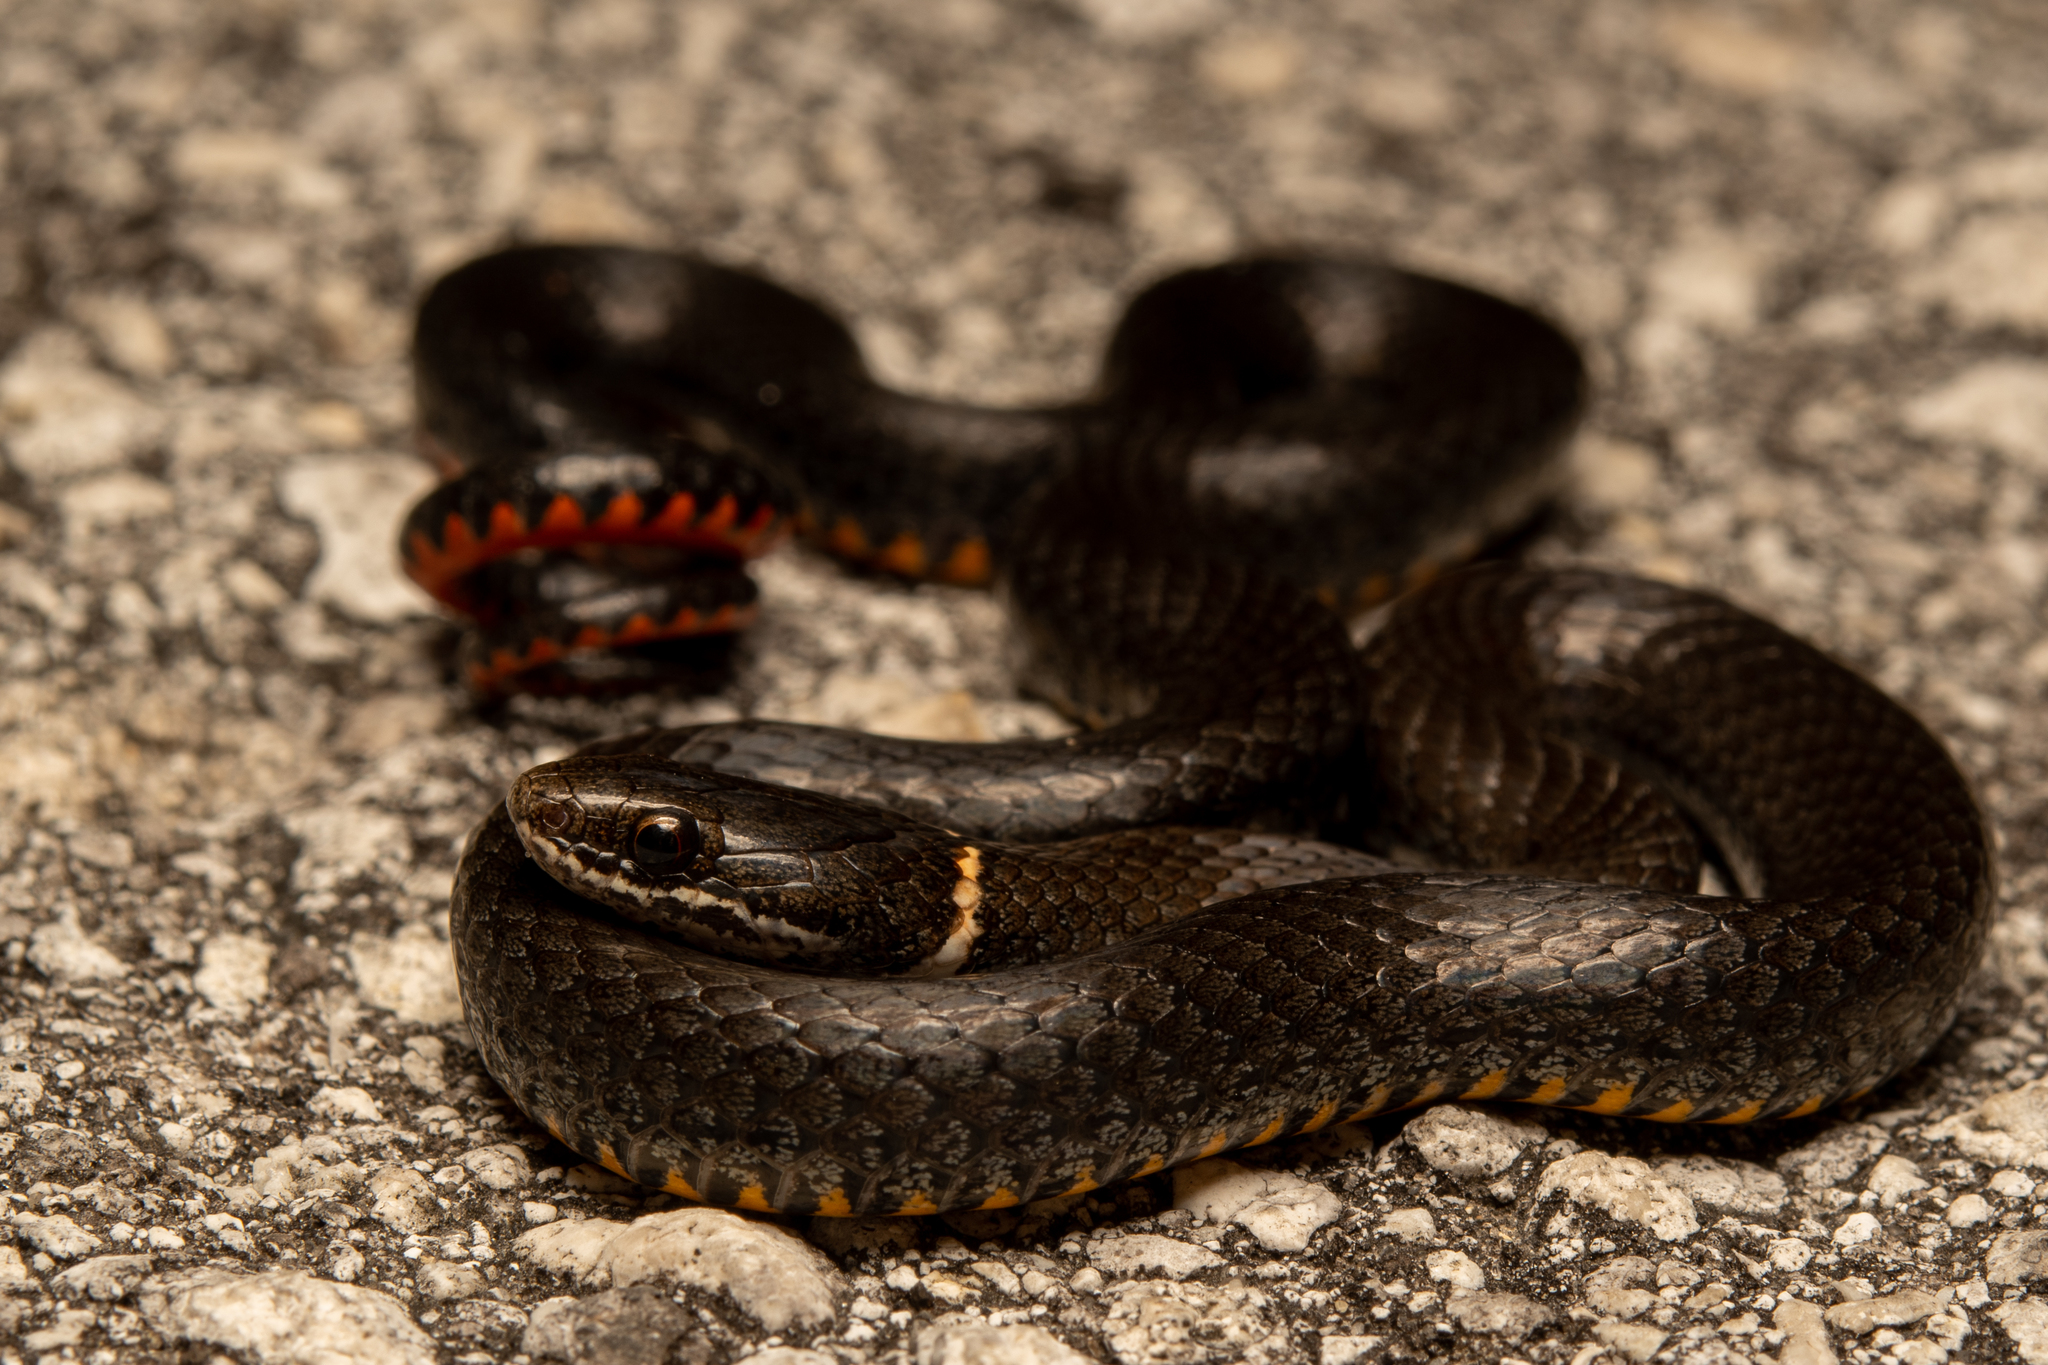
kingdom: Animalia
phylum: Chordata
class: Squamata
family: Colubridae
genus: Diadophis
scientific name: Diadophis punctatus
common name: Ringneck snake
